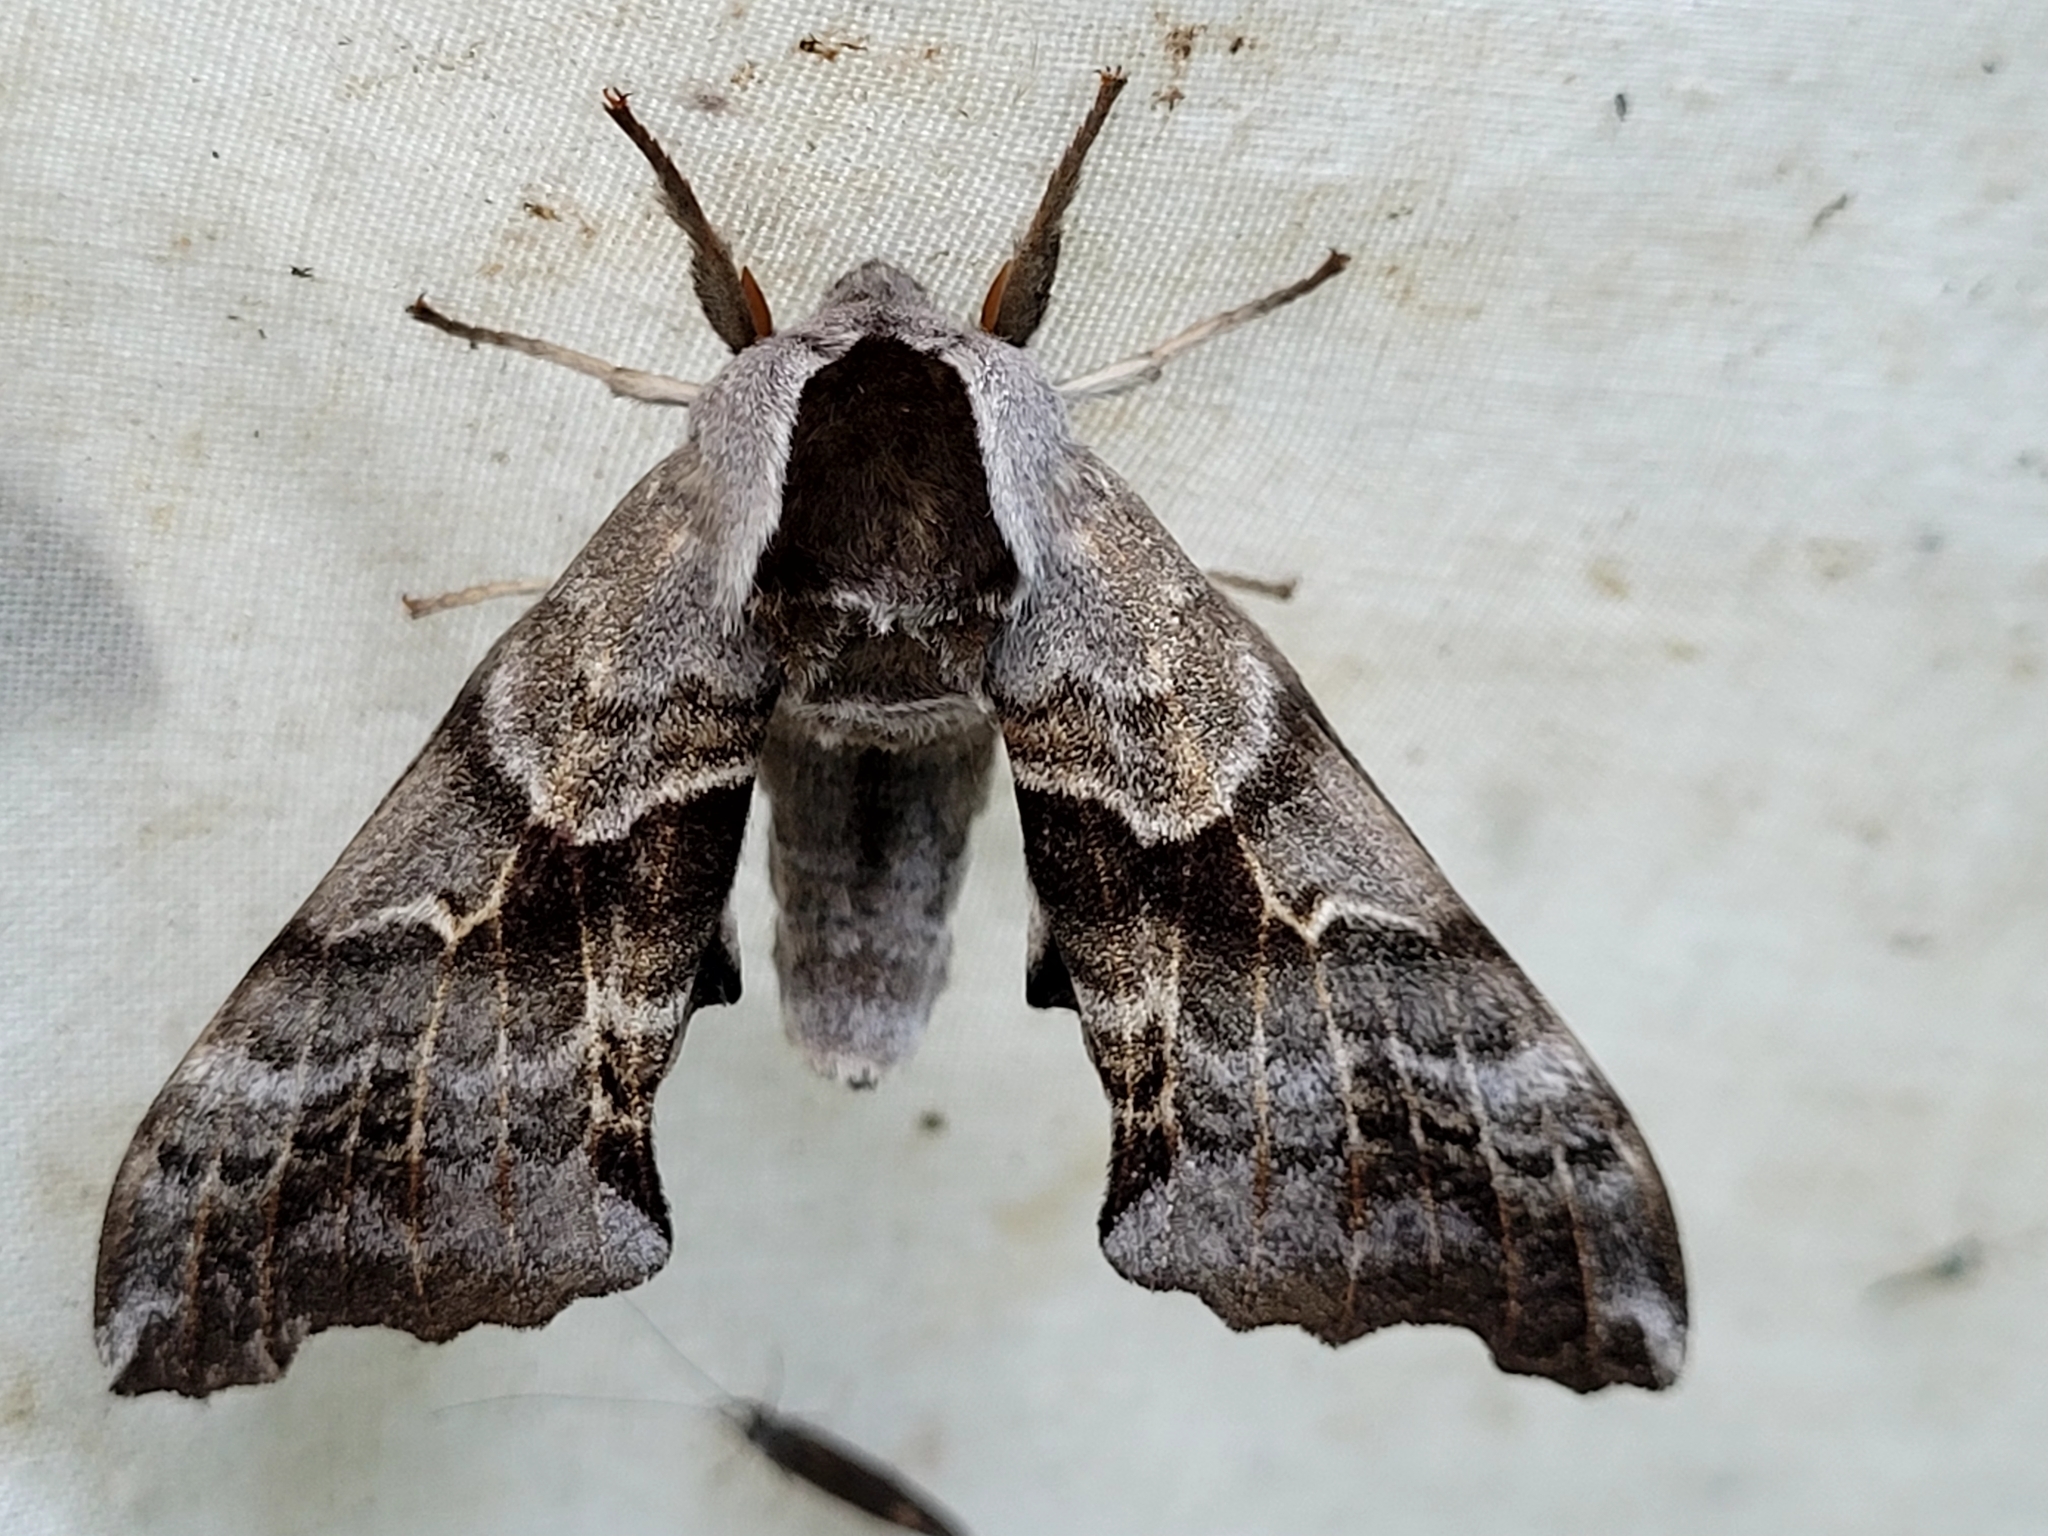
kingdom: Animalia
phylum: Arthropoda
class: Insecta
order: Lepidoptera
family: Sphingidae
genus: Smerinthus
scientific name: Smerinthus cerisyi
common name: Cerisy's sphinx moth
